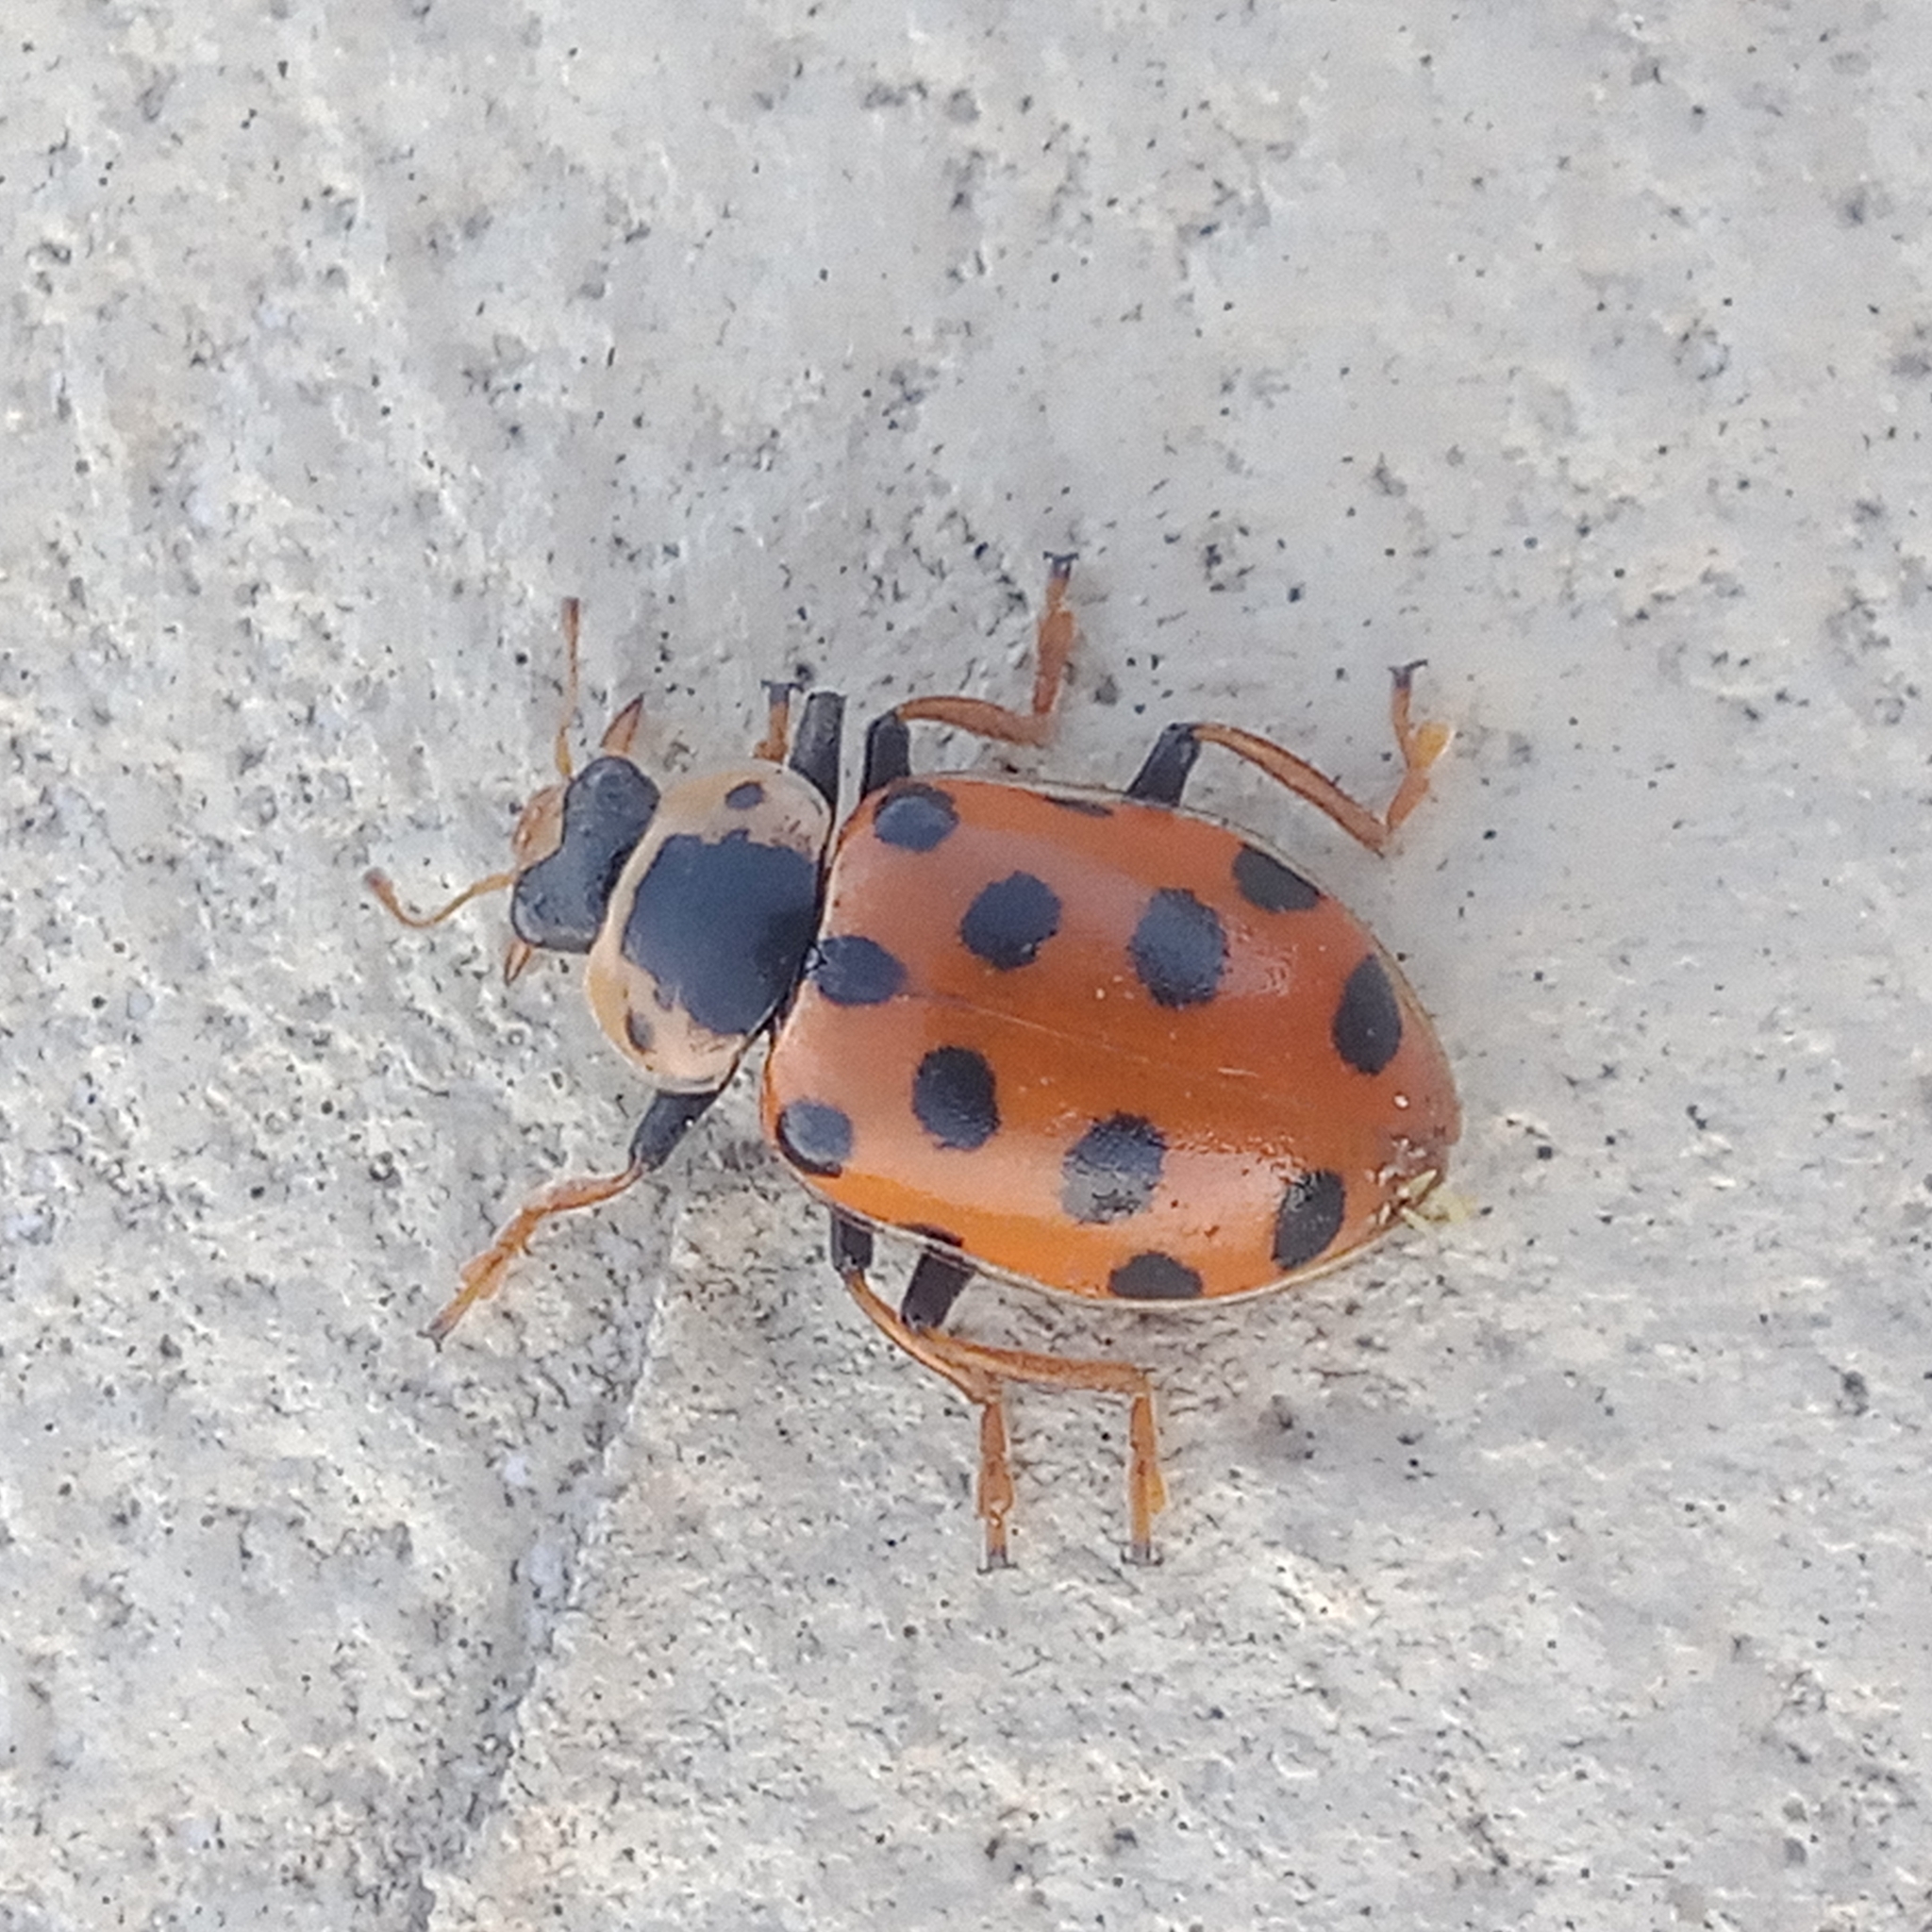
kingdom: Animalia
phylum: Arthropoda
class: Insecta
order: Coleoptera
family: Coccinellidae
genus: Hippodamia
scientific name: Hippodamia tredecimpunctata
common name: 13-spot ladybird
